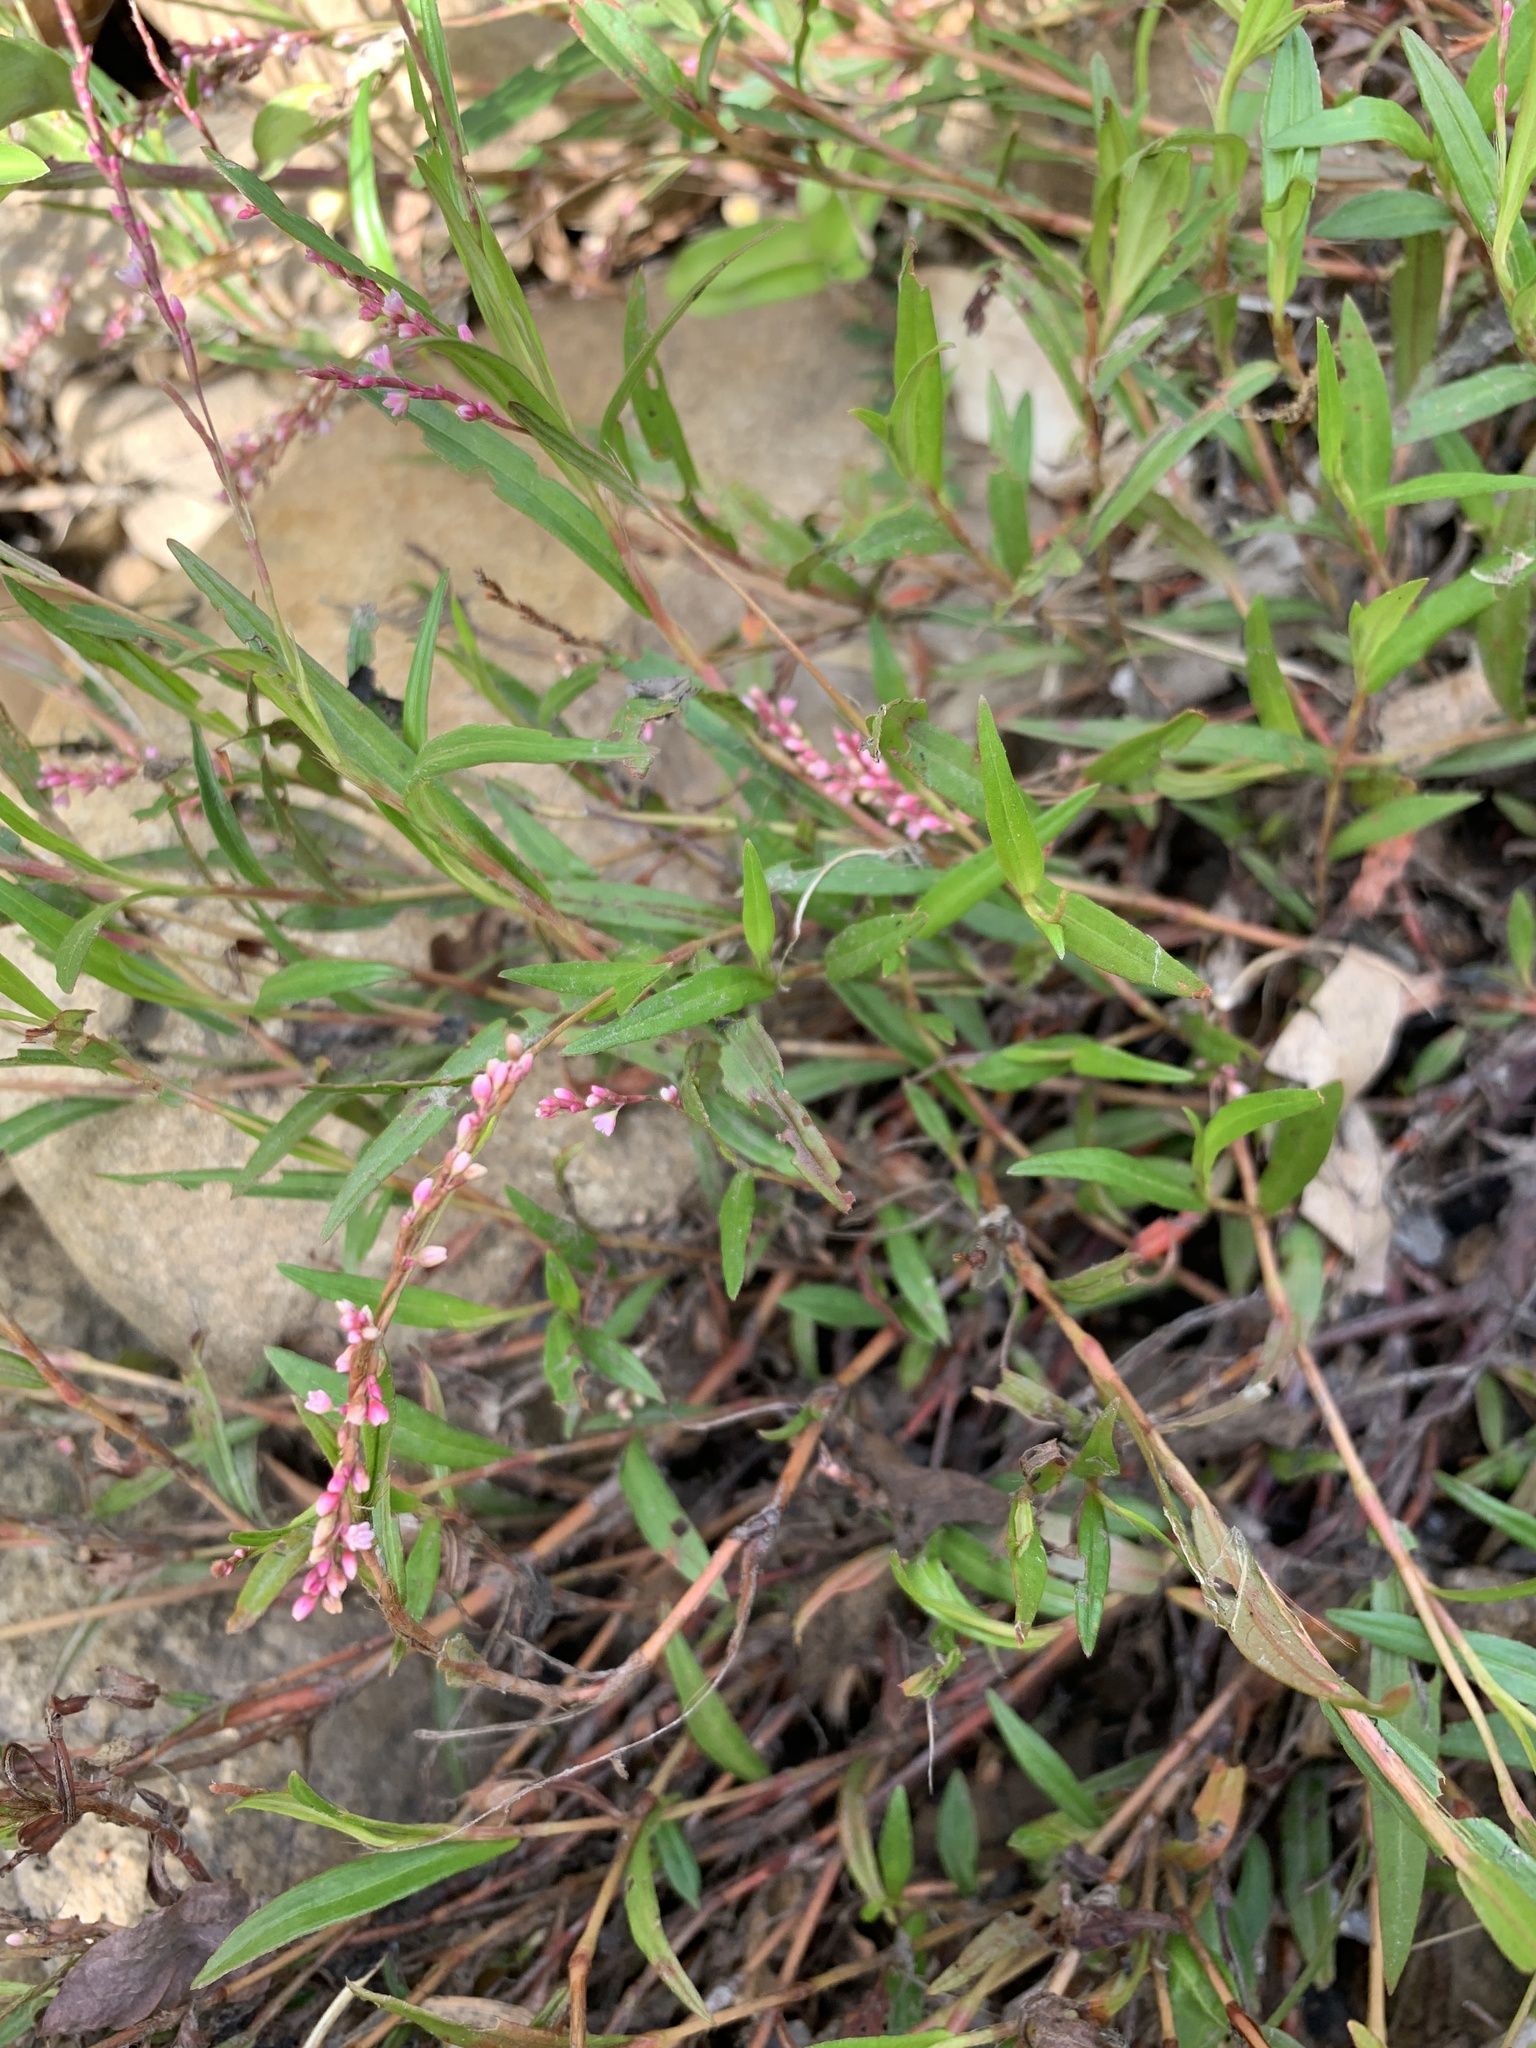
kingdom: Plantae
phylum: Tracheophyta
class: Magnoliopsida
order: Caryophyllales
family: Polygonaceae
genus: Persicaria
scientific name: Persicaria decipiens
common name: Willow-weed
